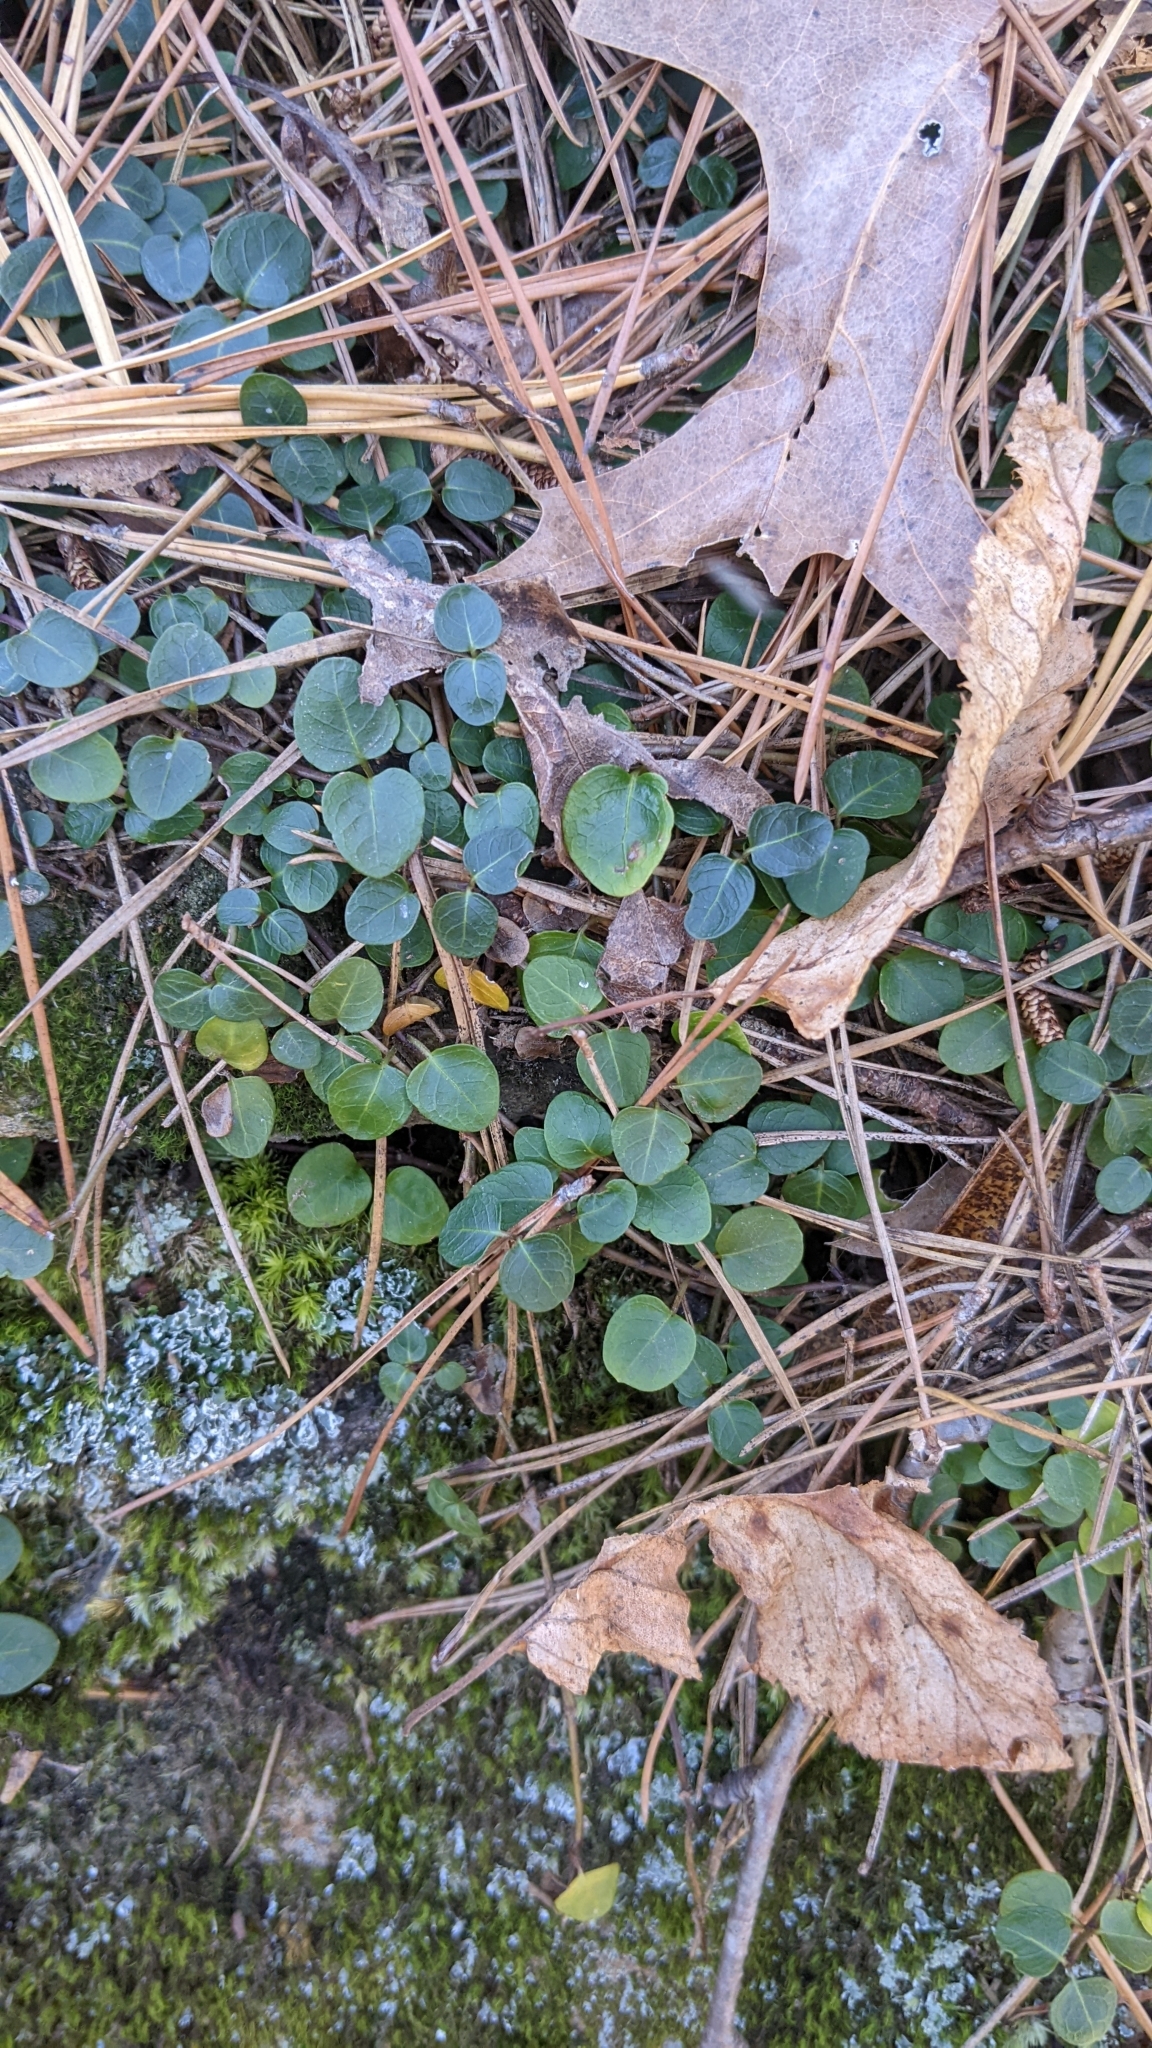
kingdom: Plantae
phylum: Tracheophyta
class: Magnoliopsida
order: Gentianales
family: Rubiaceae
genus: Mitchella
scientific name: Mitchella repens
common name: Partridge-berry
